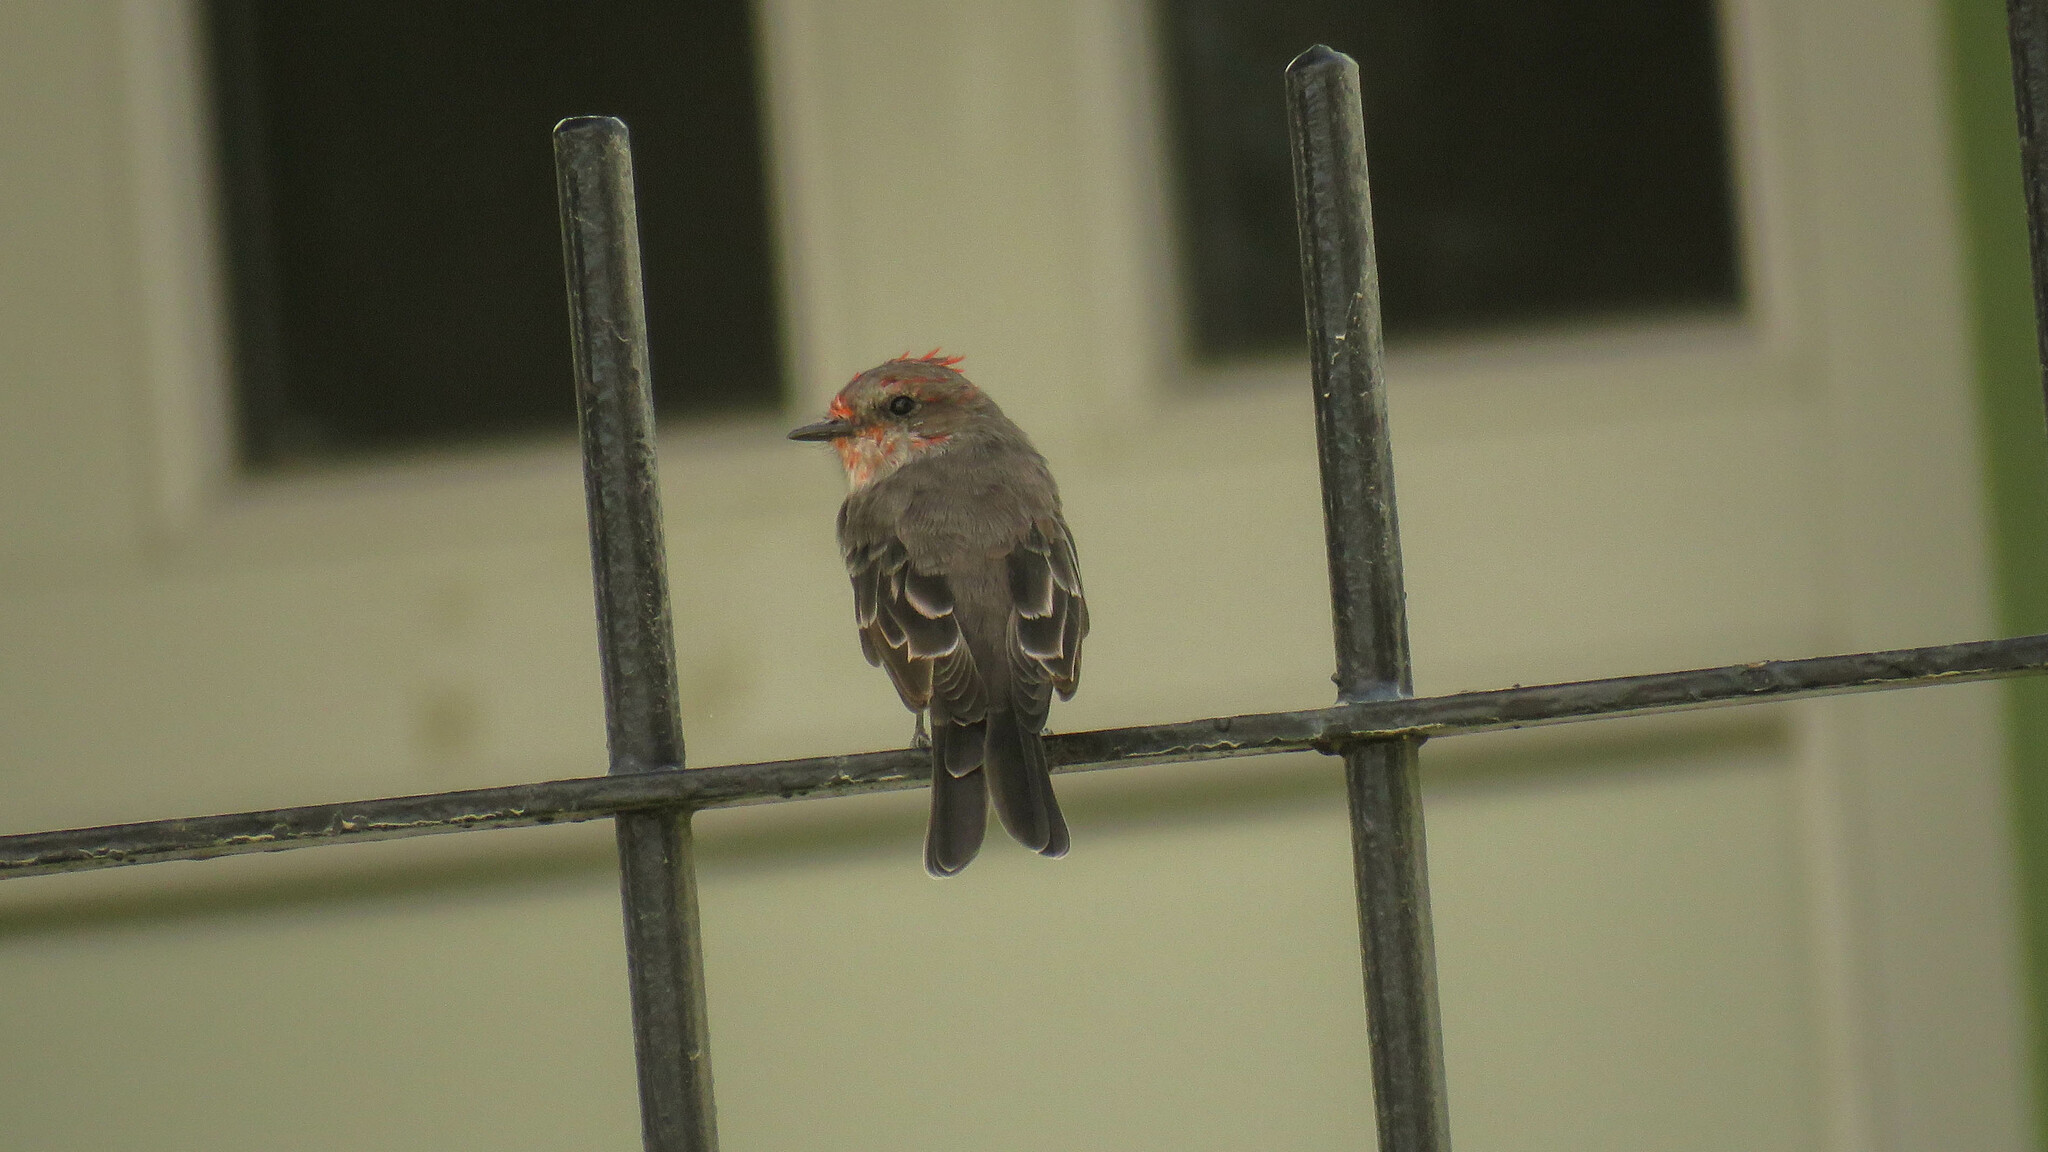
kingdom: Animalia
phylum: Chordata
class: Aves
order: Passeriformes
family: Tyrannidae
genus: Pyrocephalus
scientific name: Pyrocephalus rubinus
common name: Vermilion flycatcher
